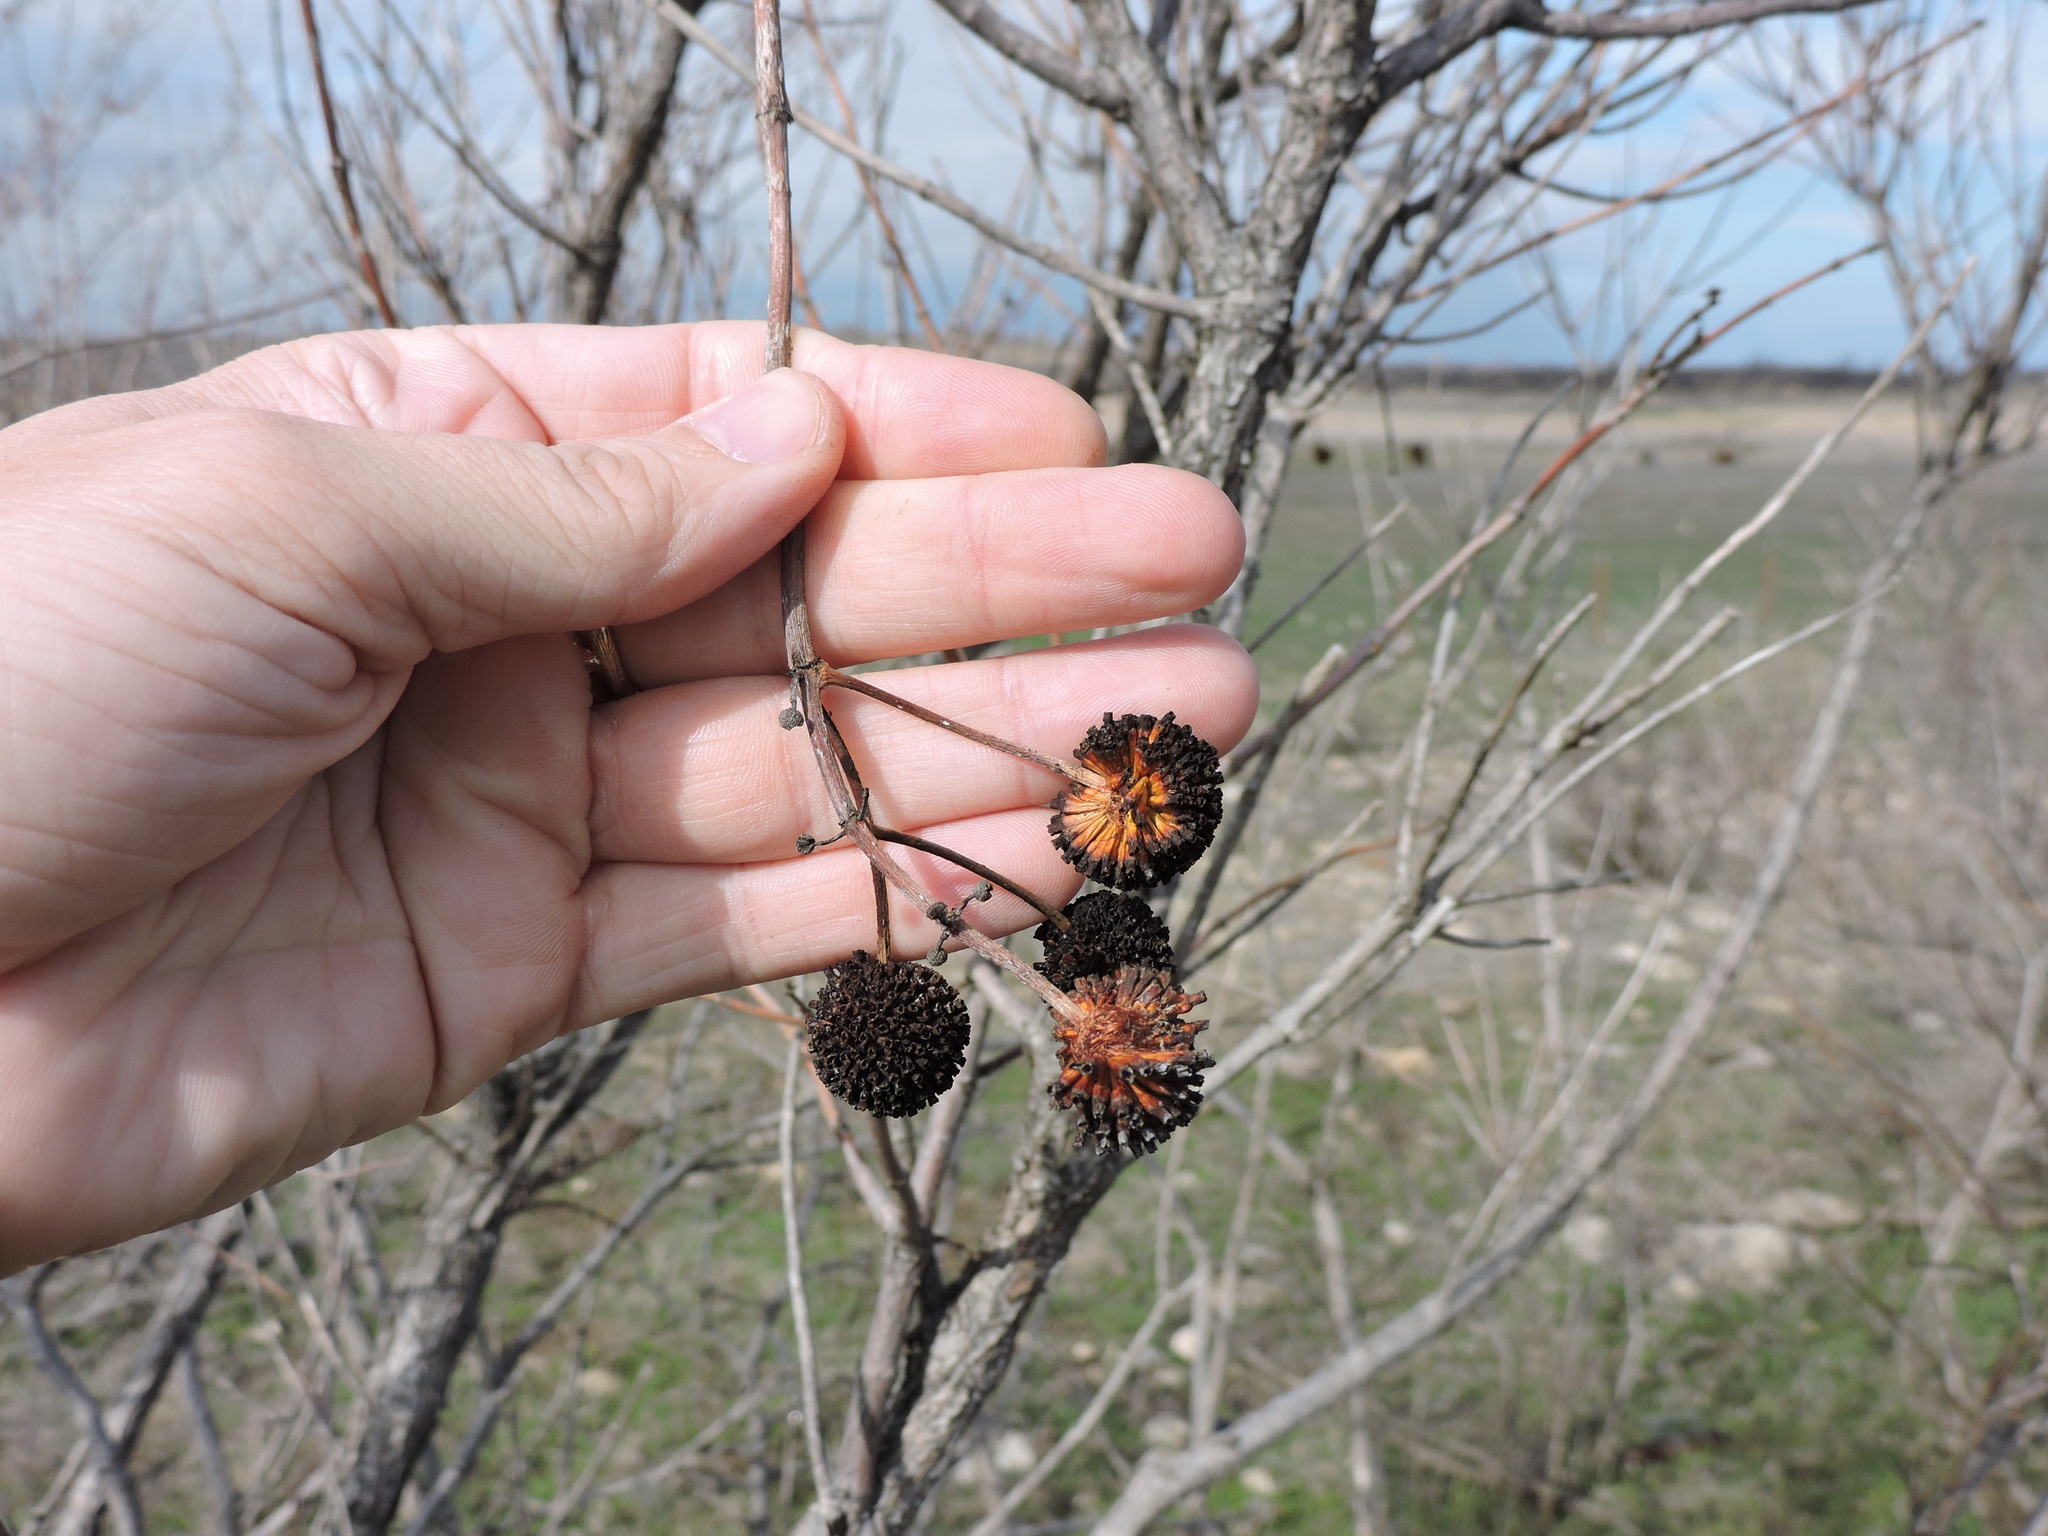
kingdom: Plantae
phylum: Tracheophyta
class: Magnoliopsida
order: Gentianales
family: Rubiaceae
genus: Cephalanthus
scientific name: Cephalanthus occidentalis
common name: Button-willow
